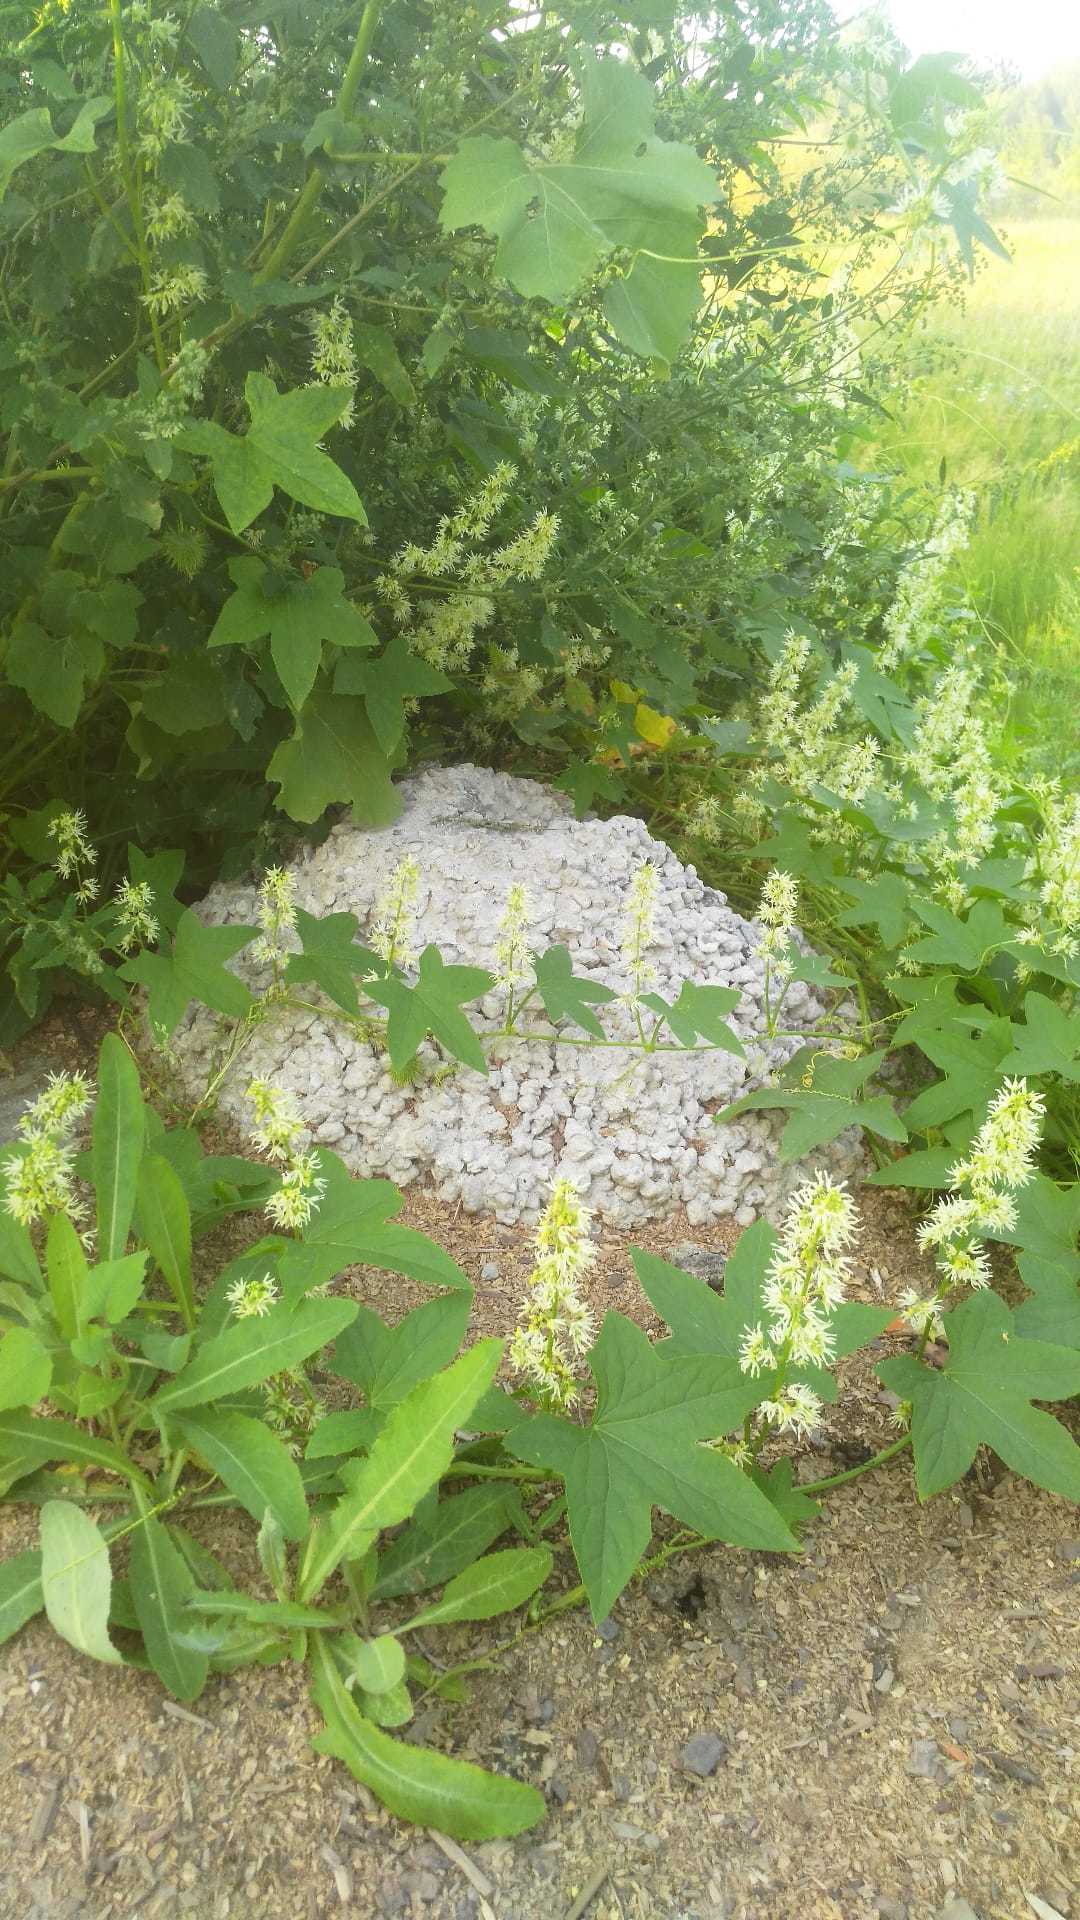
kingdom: Plantae
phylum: Tracheophyta
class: Magnoliopsida
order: Cucurbitales
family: Cucurbitaceae
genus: Echinocystis
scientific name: Echinocystis lobata
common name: Wild cucumber
